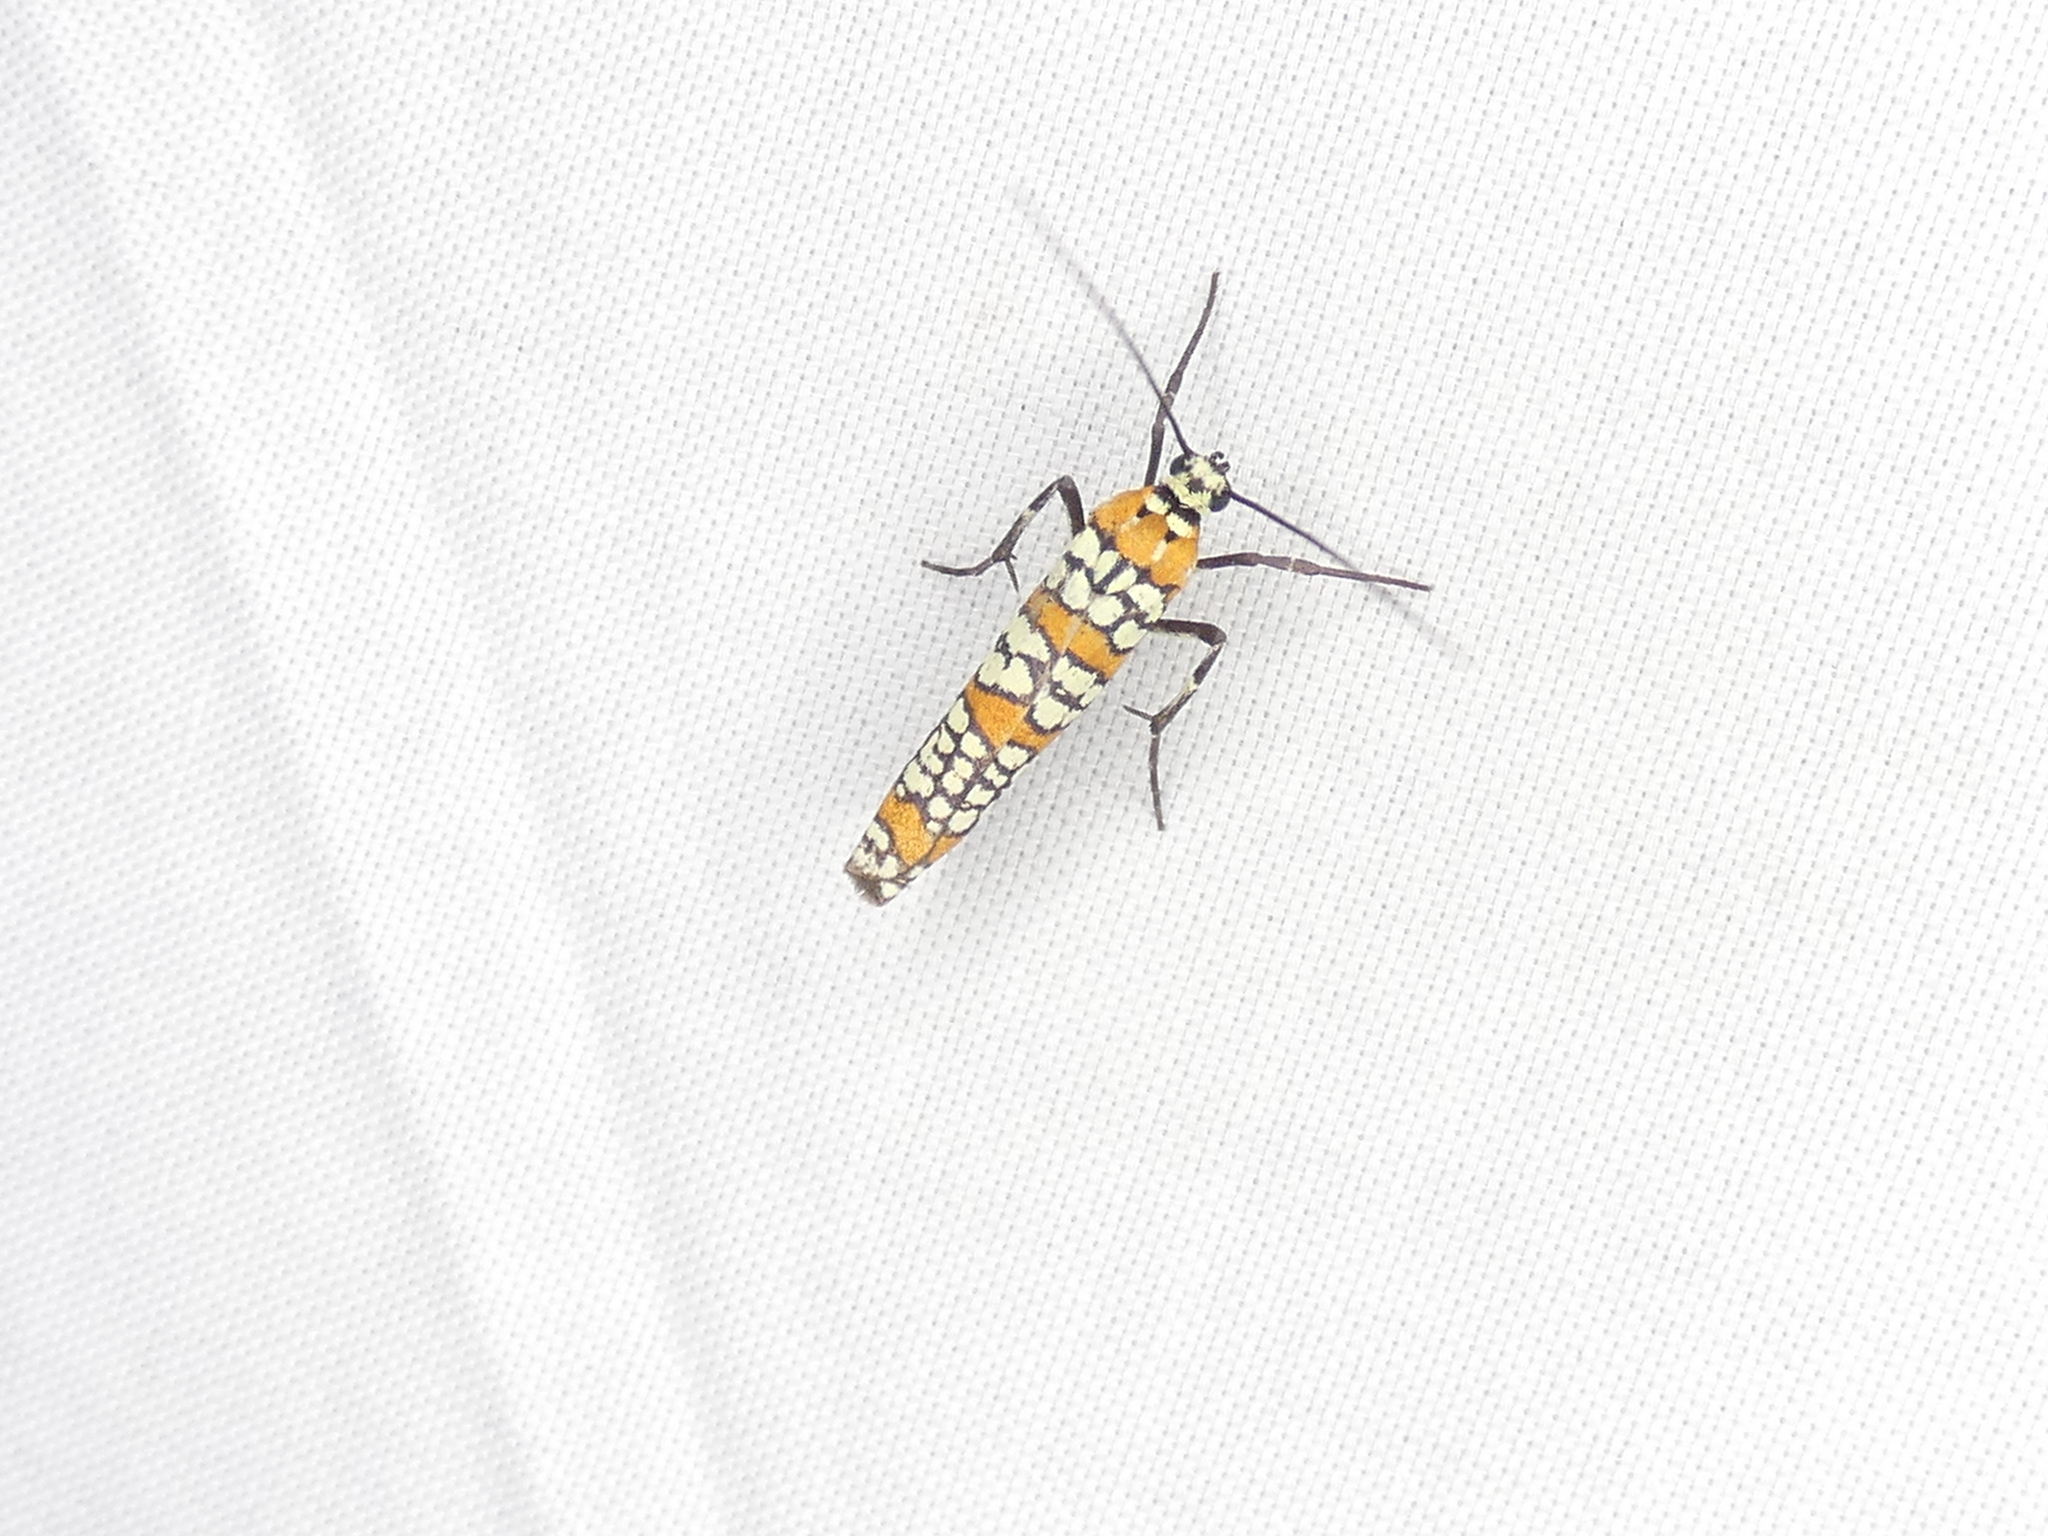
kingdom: Animalia
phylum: Arthropoda
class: Insecta
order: Lepidoptera
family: Attevidae
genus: Atteva
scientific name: Atteva punctella
